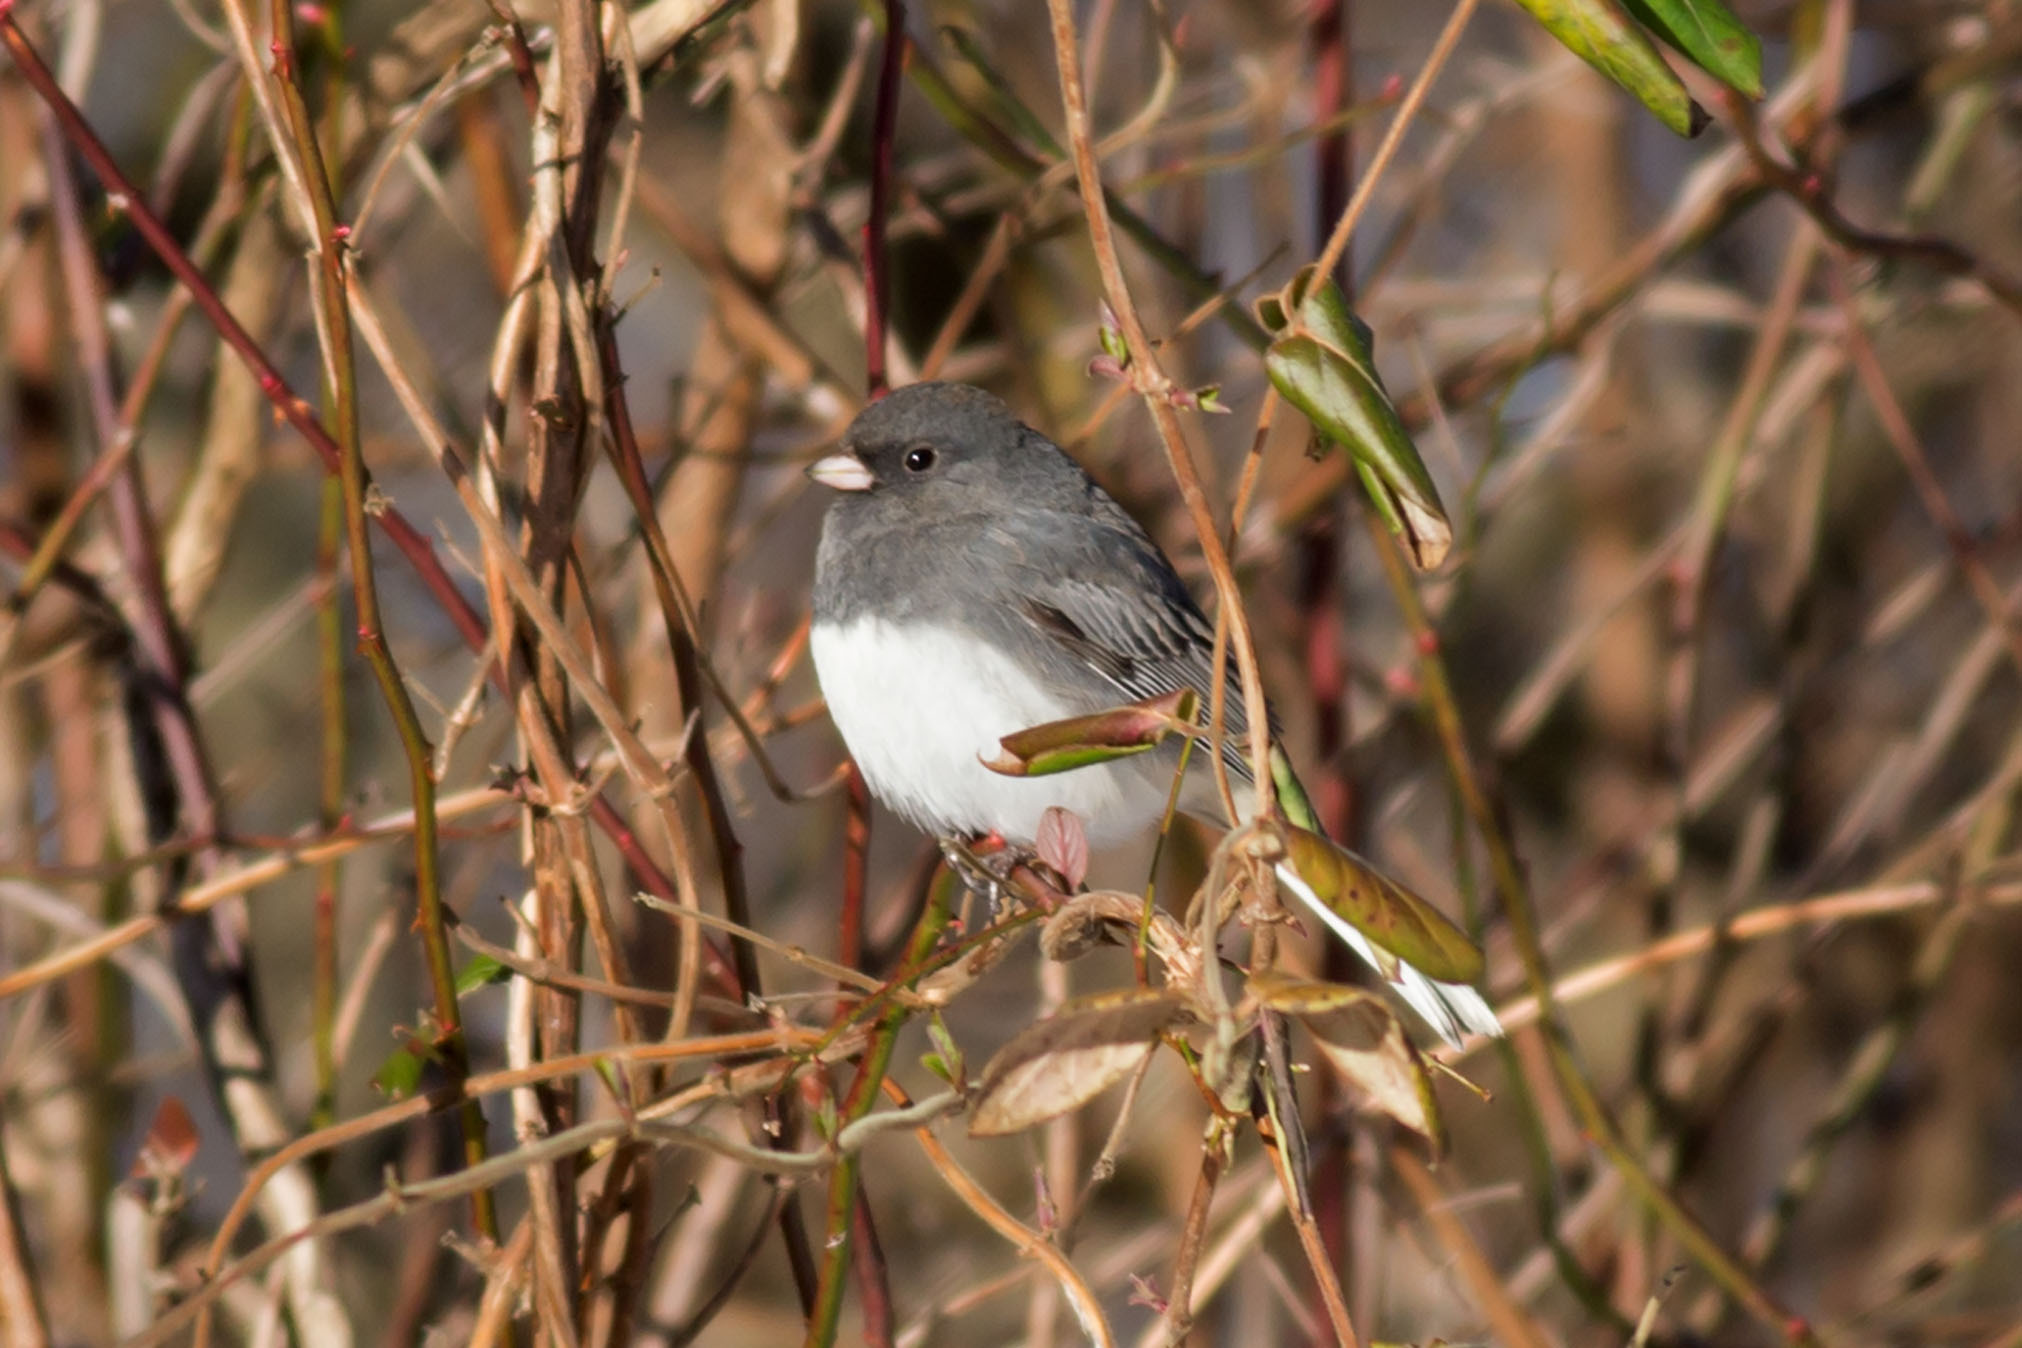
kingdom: Animalia
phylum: Chordata
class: Aves
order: Passeriformes
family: Passerellidae
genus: Junco
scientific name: Junco hyemalis
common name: Dark-eyed junco
